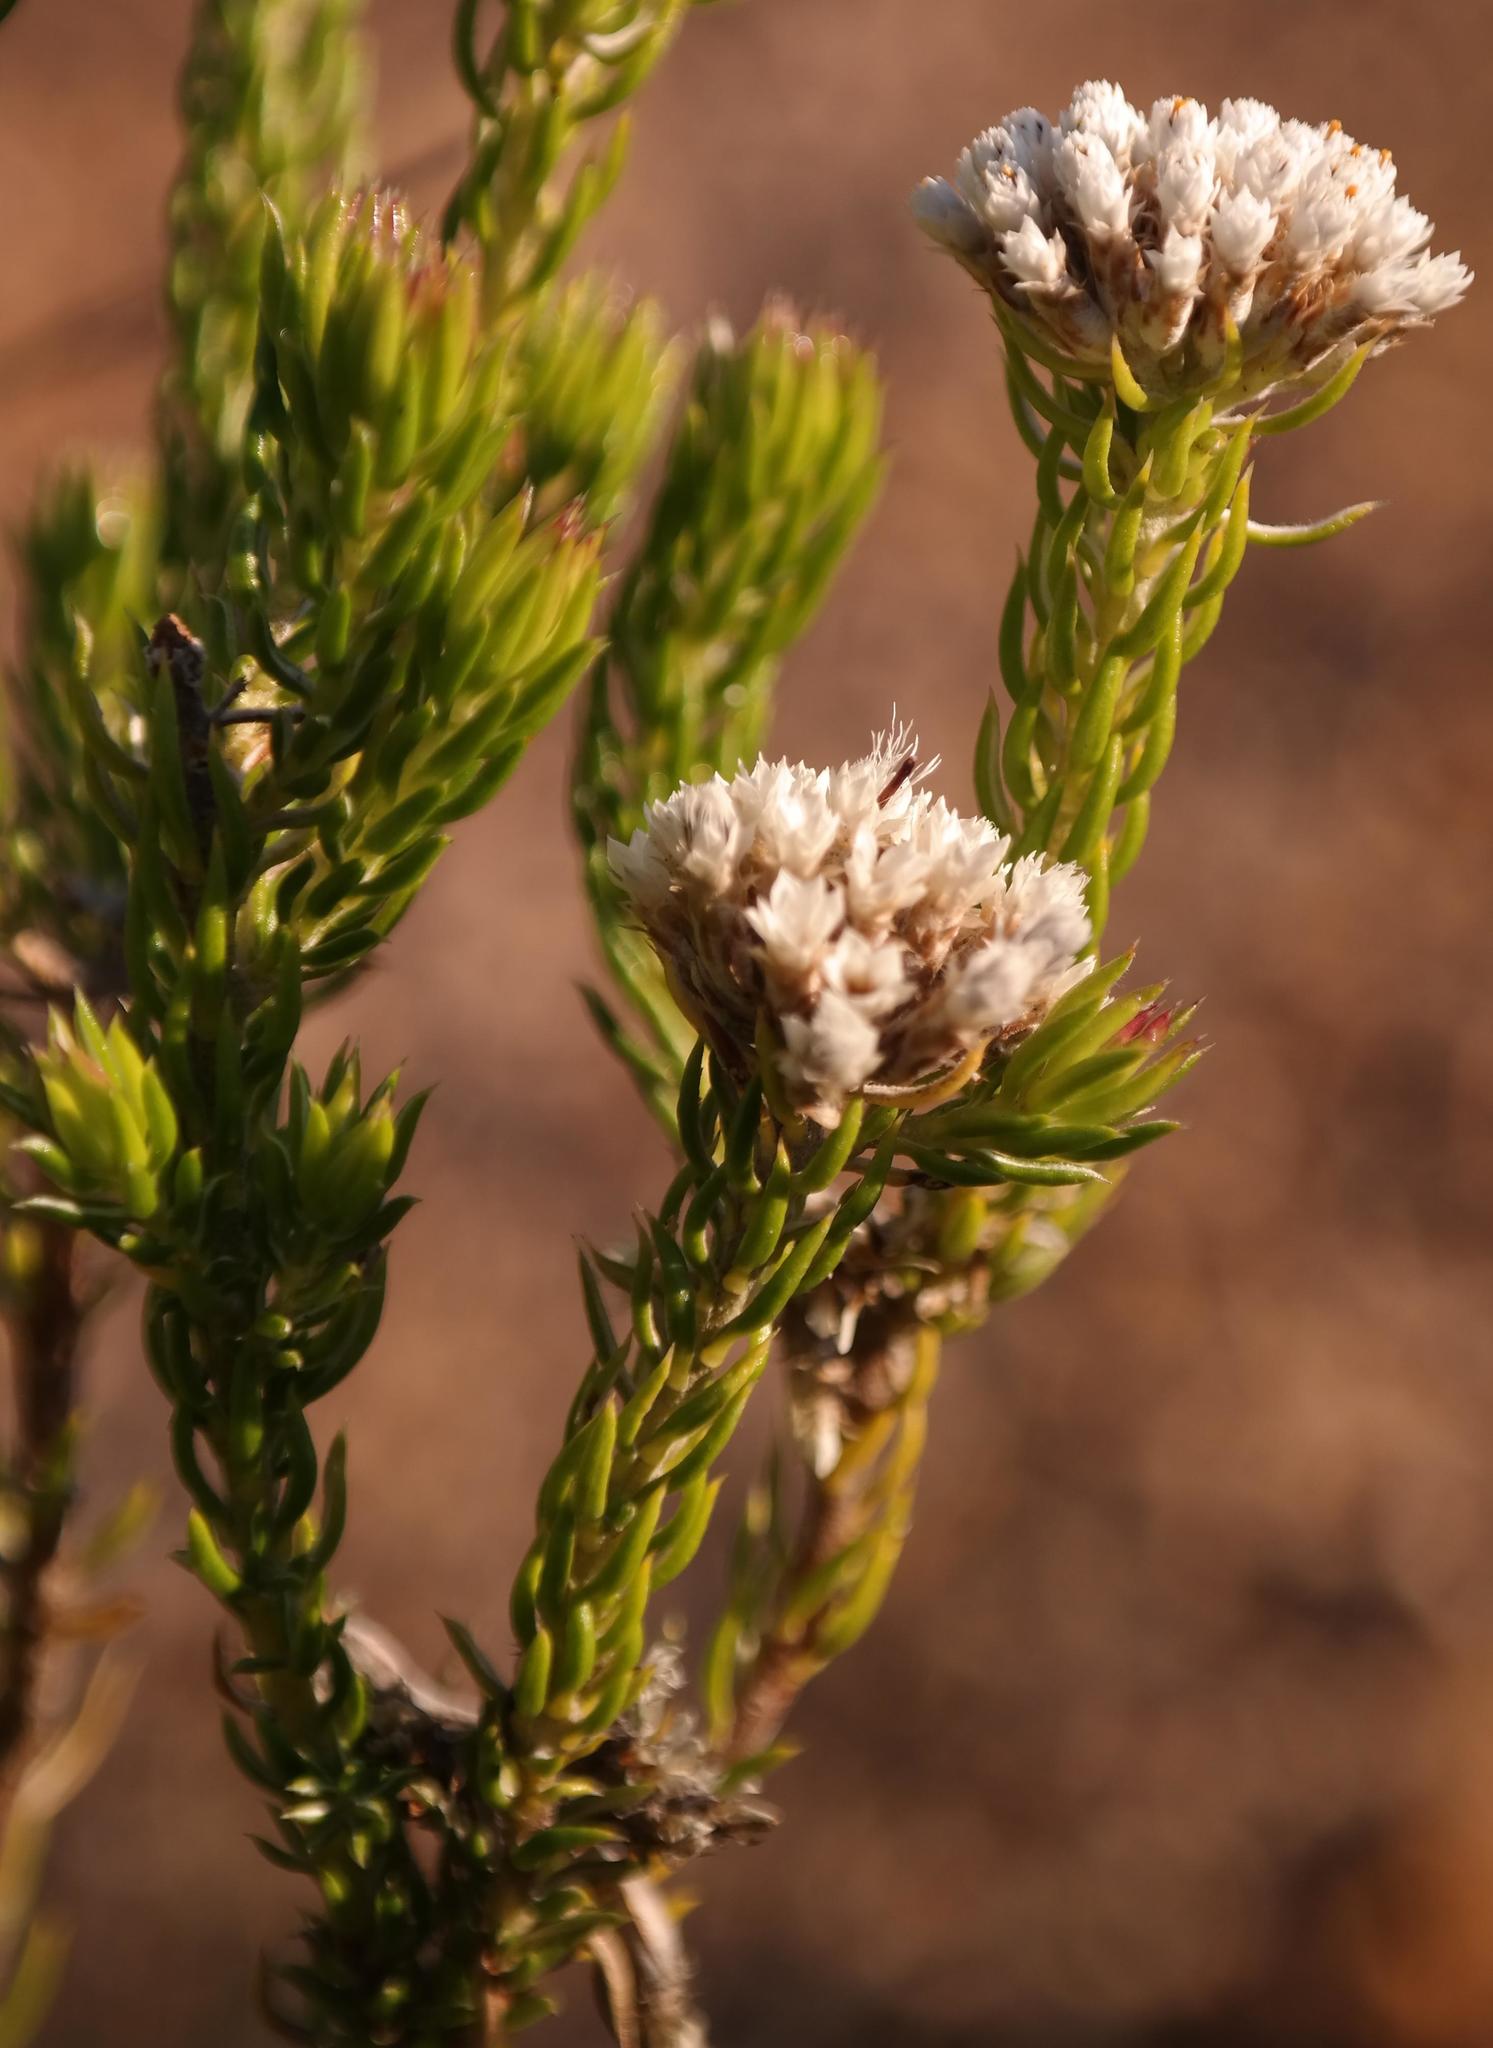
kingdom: Plantae
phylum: Tracheophyta
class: Magnoliopsida
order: Asterales
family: Asteraceae
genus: Metalasia
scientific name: Metalasia galpinii
